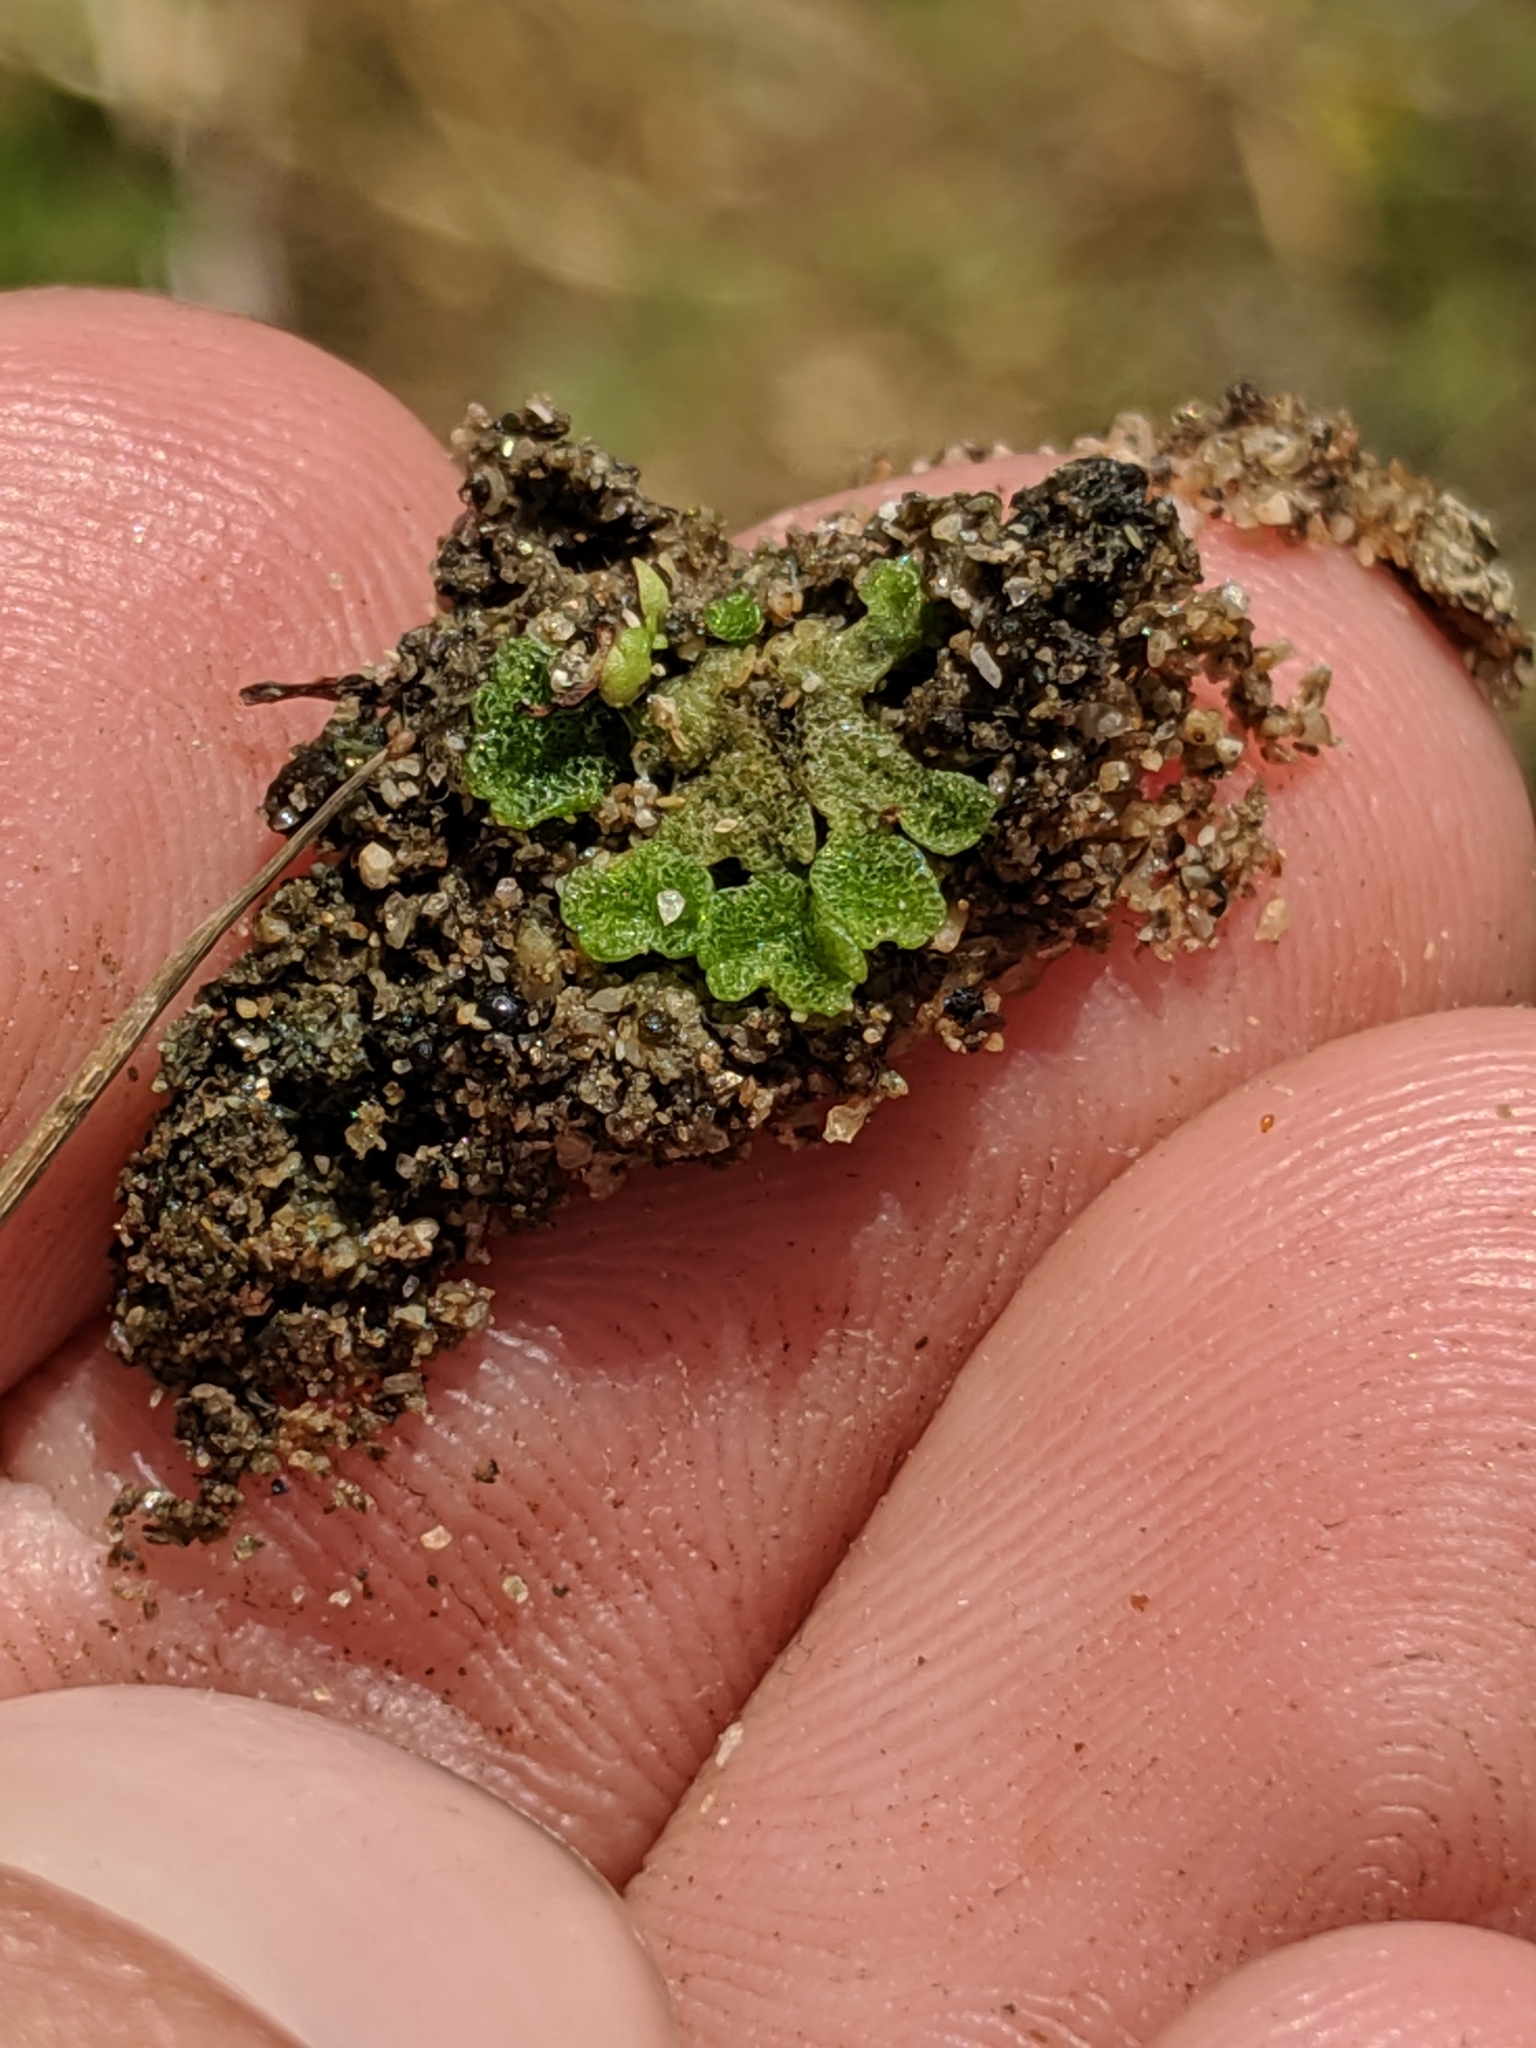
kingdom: Plantae
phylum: Marchantiophyta
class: Marchantiopsida
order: Marchantiales
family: Ricciaceae
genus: Riccia
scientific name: Riccia cavernosa
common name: Cavernous crystalwort
